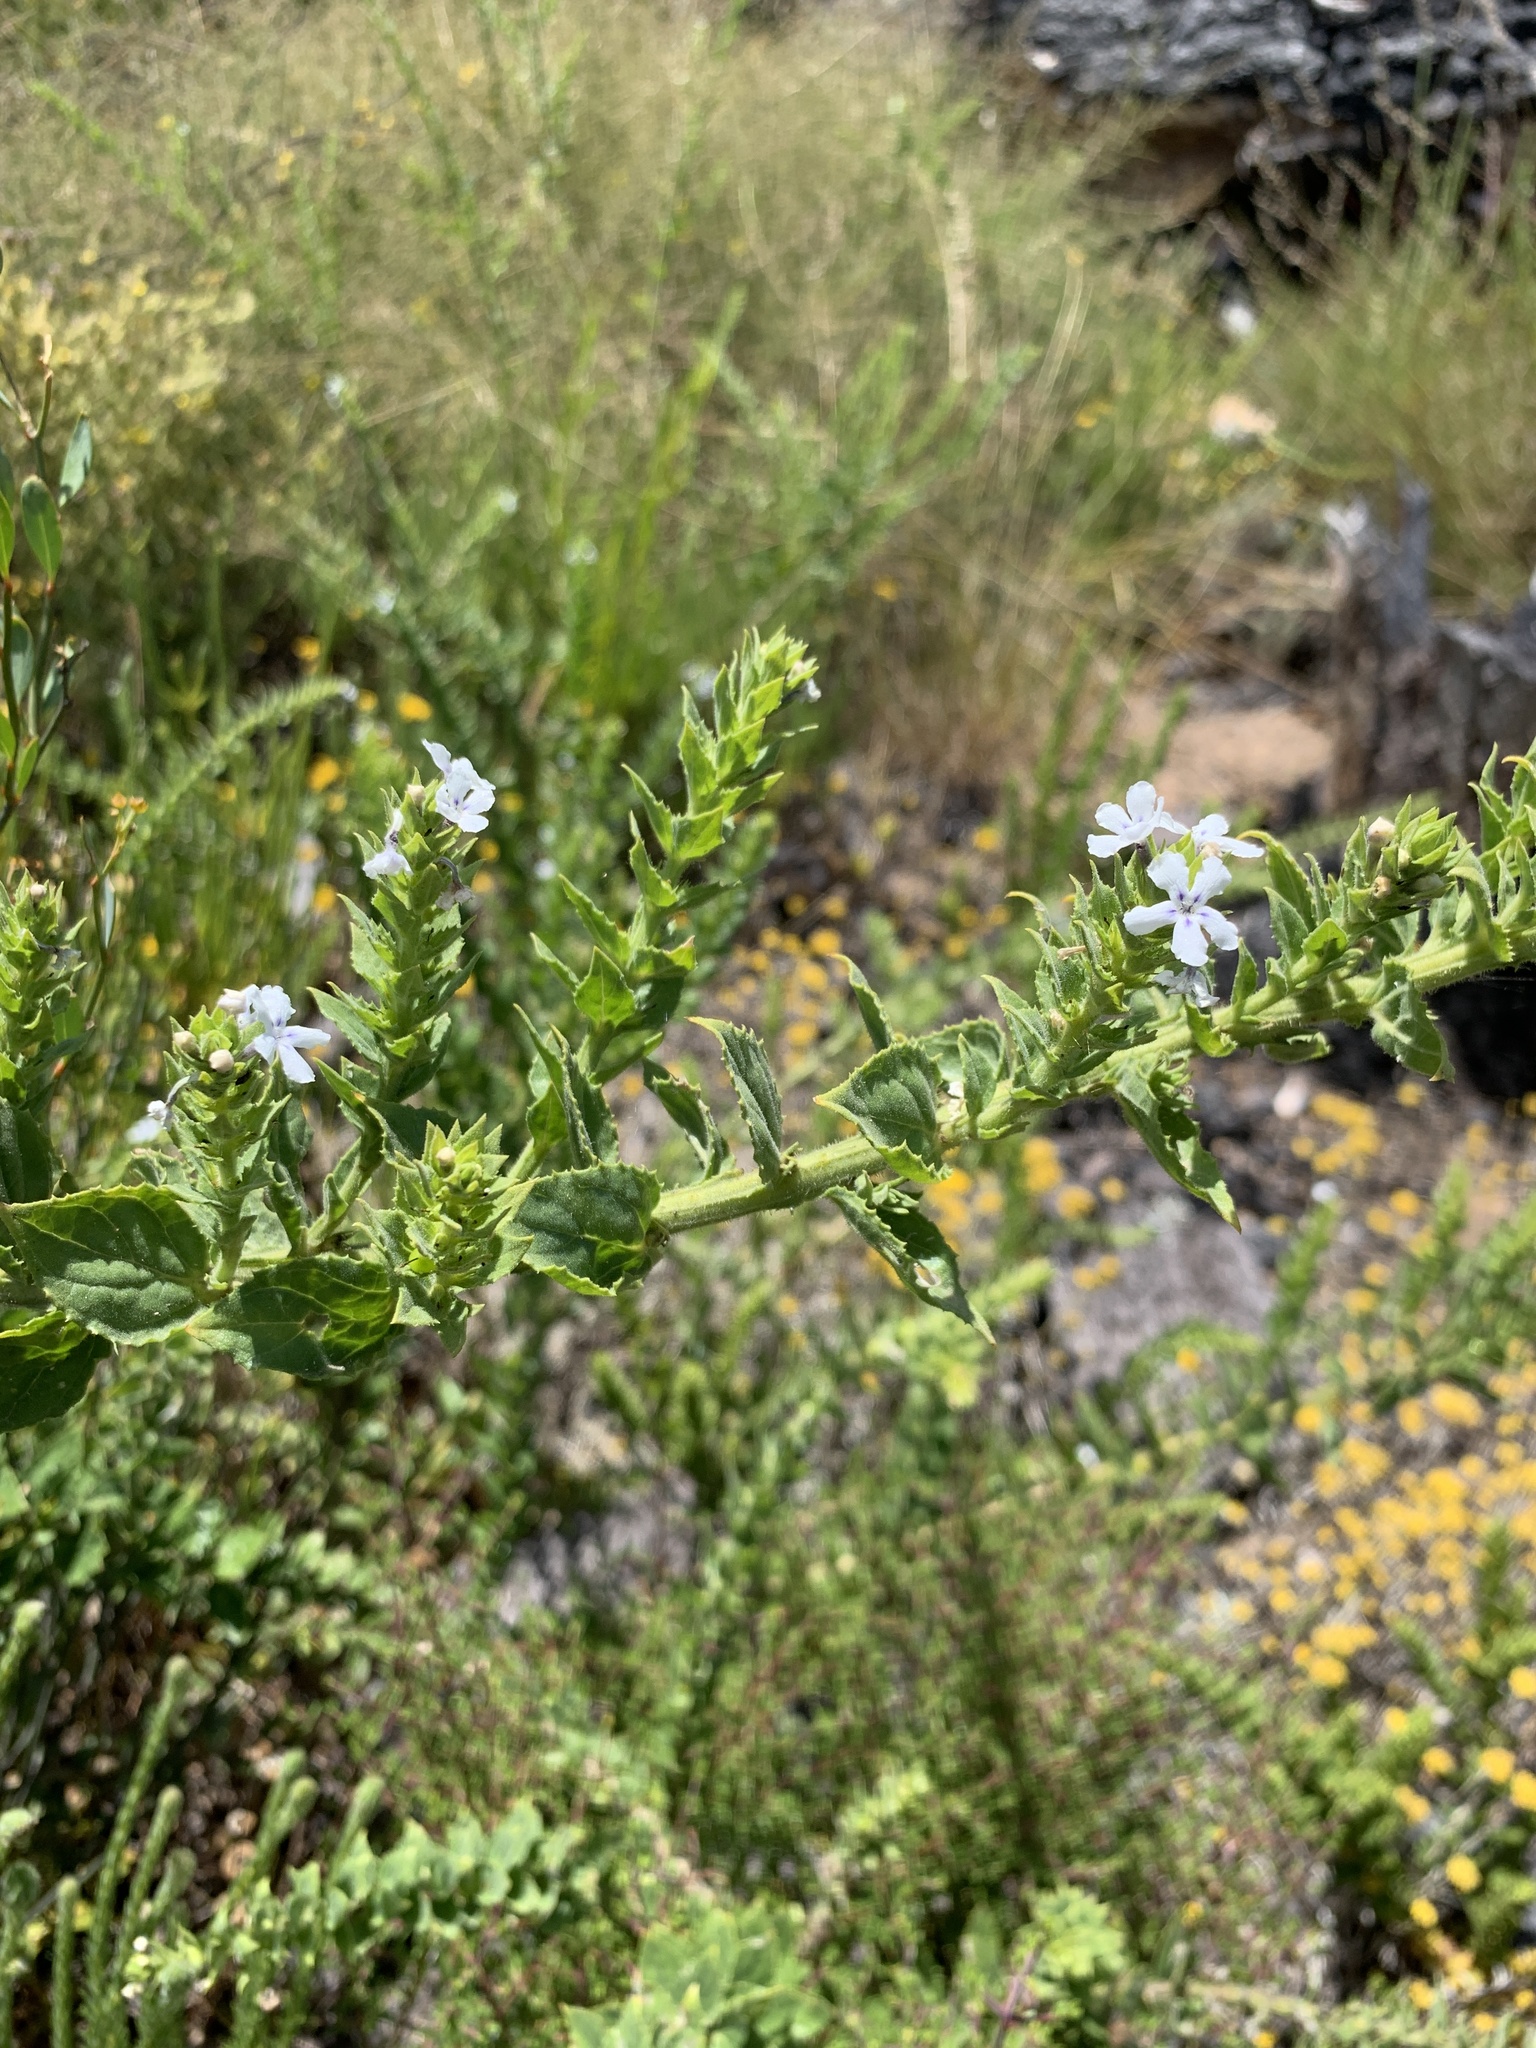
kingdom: Plantae
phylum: Tracheophyta
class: Magnoliopsida
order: Lamiales
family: Scrophulariaceae
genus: Oftia
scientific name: Oftia africana
